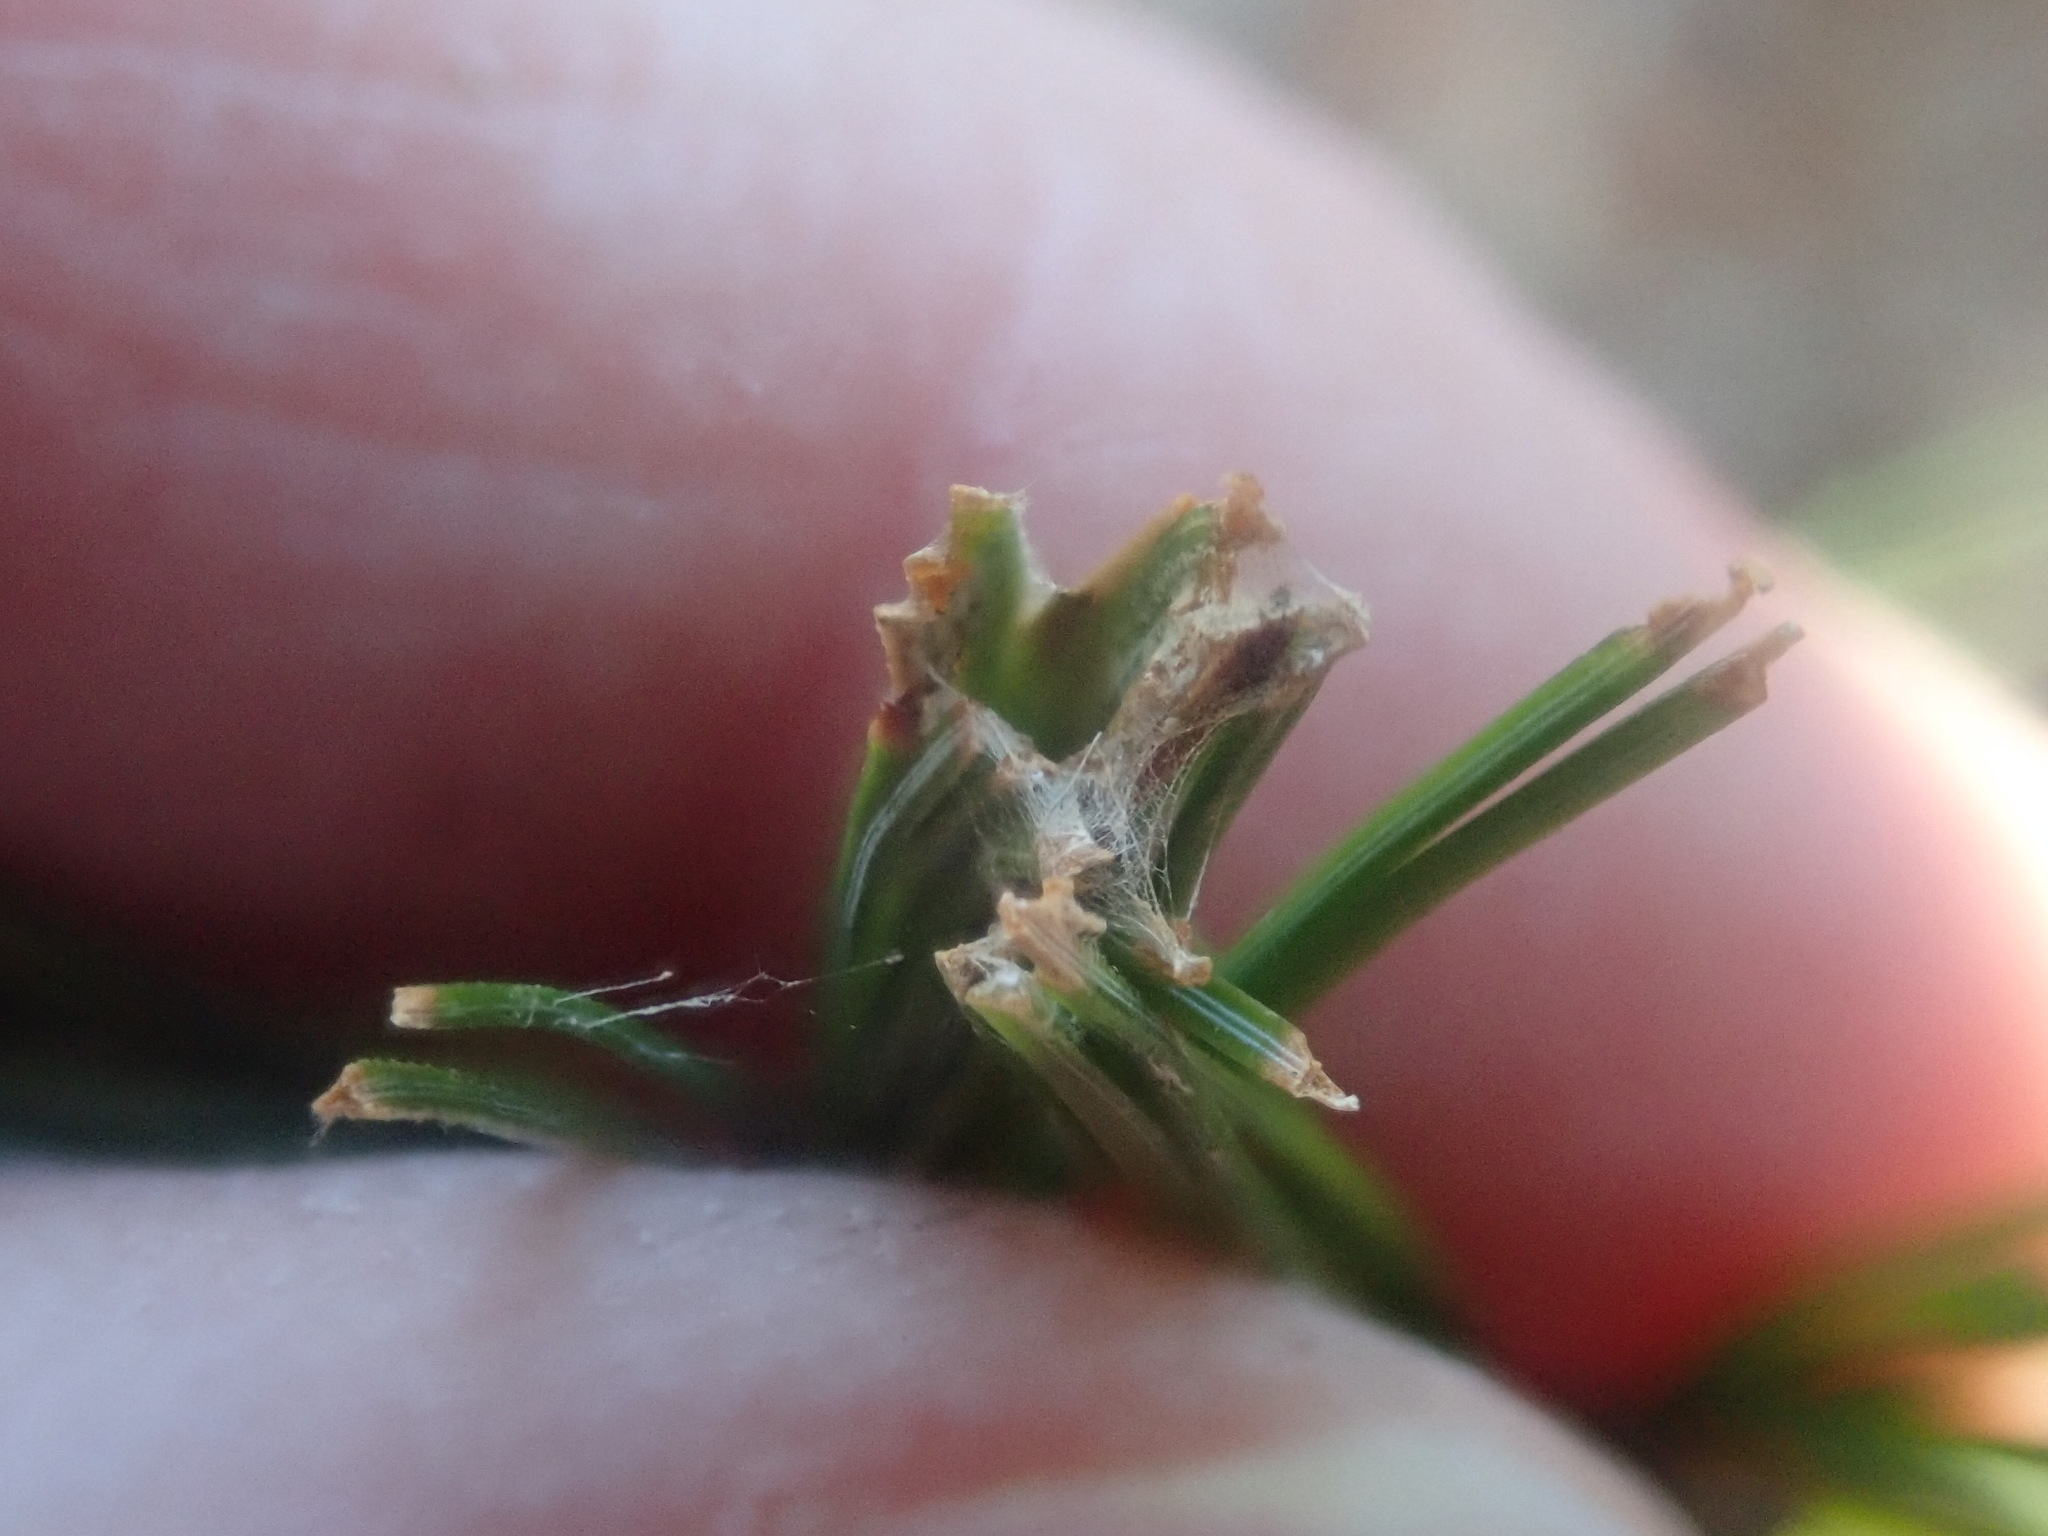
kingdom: Animalia
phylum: Arthropoda
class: Insecta
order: Lepidoptera
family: Tortricidae
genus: Argyrotaenia
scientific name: Argyrotaenia pinatubana
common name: Pine tube moth
